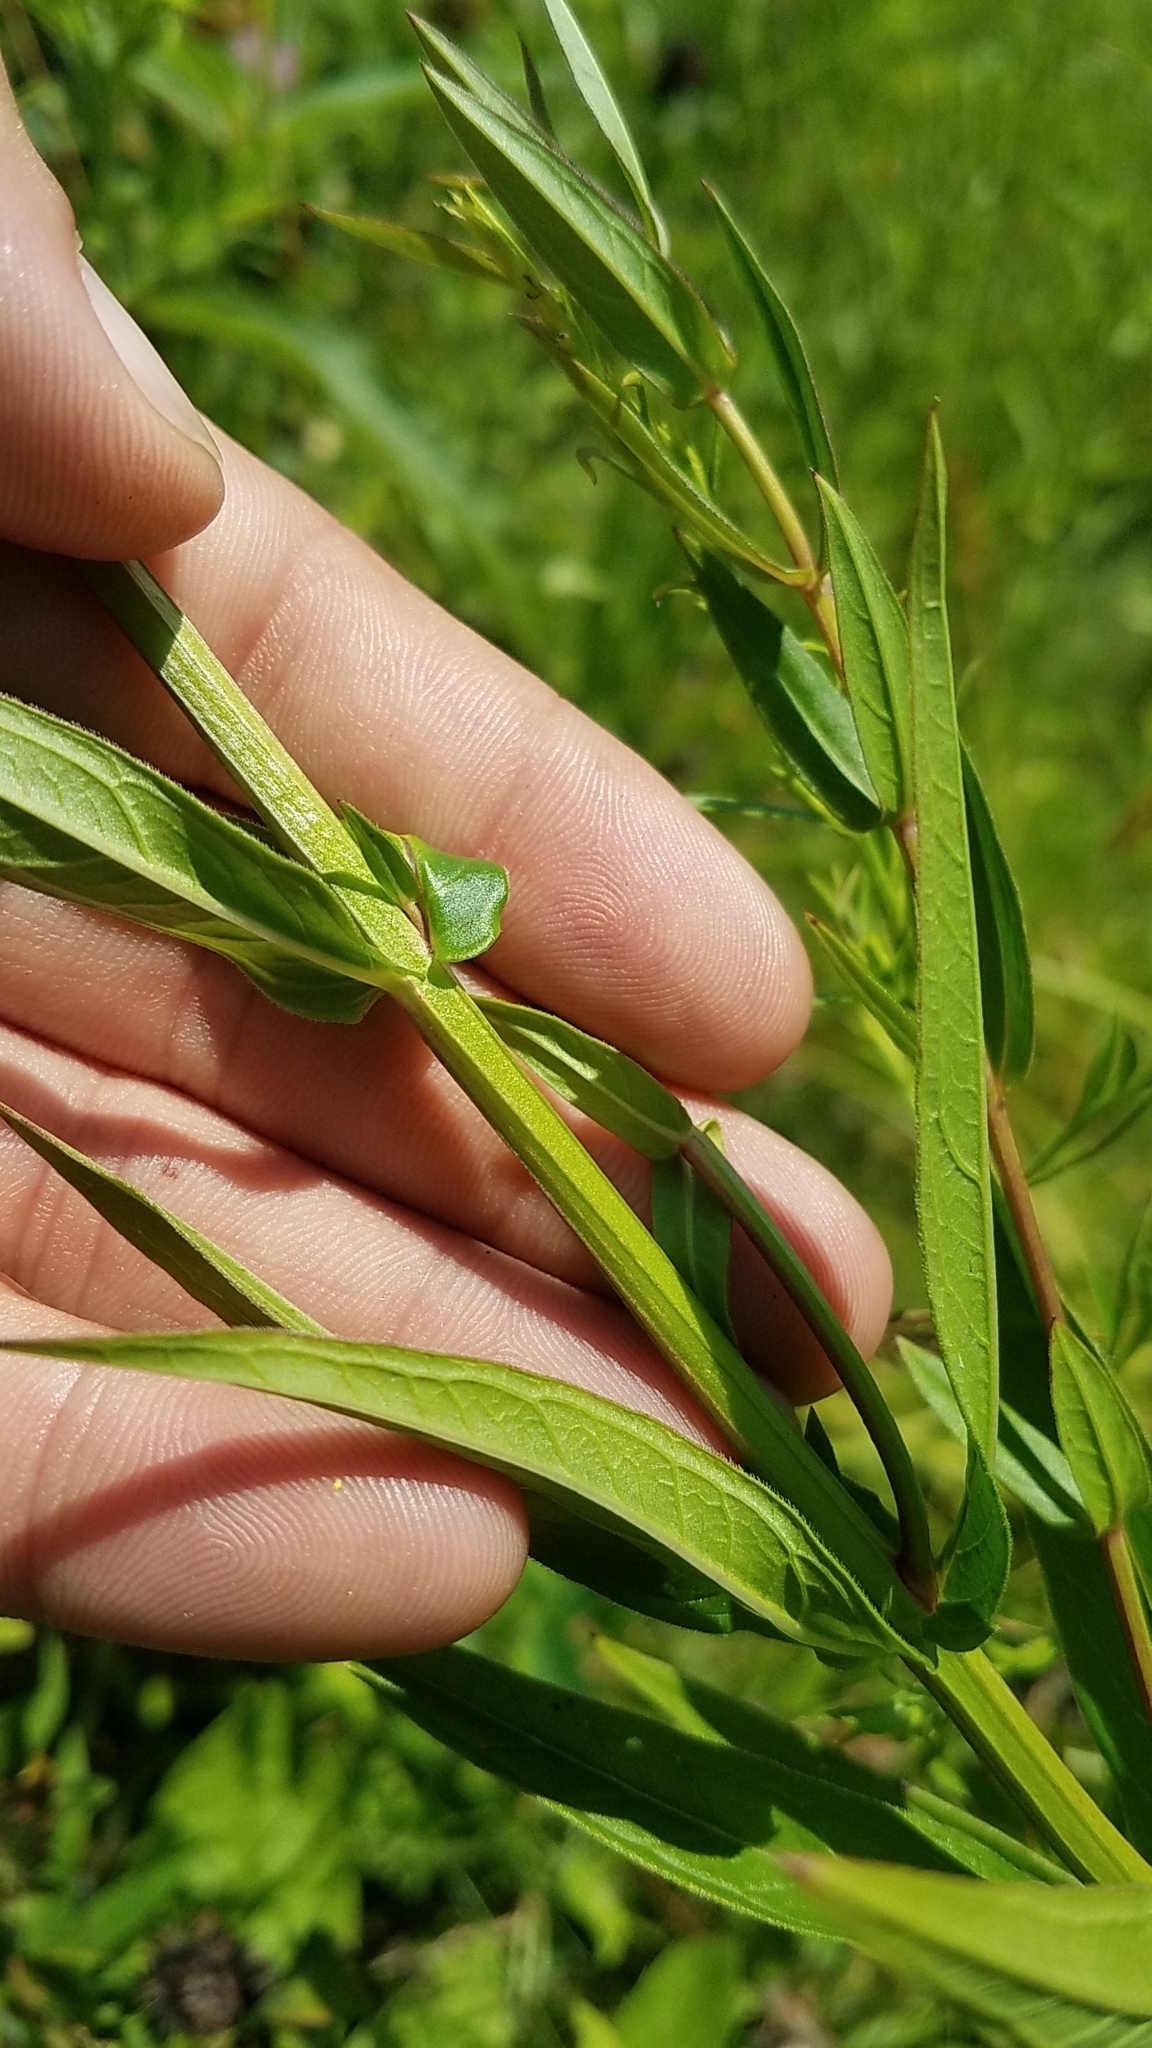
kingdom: Plantae
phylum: Tracheophyta
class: Magnoliopsida
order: Myrtales
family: Lythraceae
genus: Lythrum
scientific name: Lythrum salicaria
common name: Purple loosestrife
